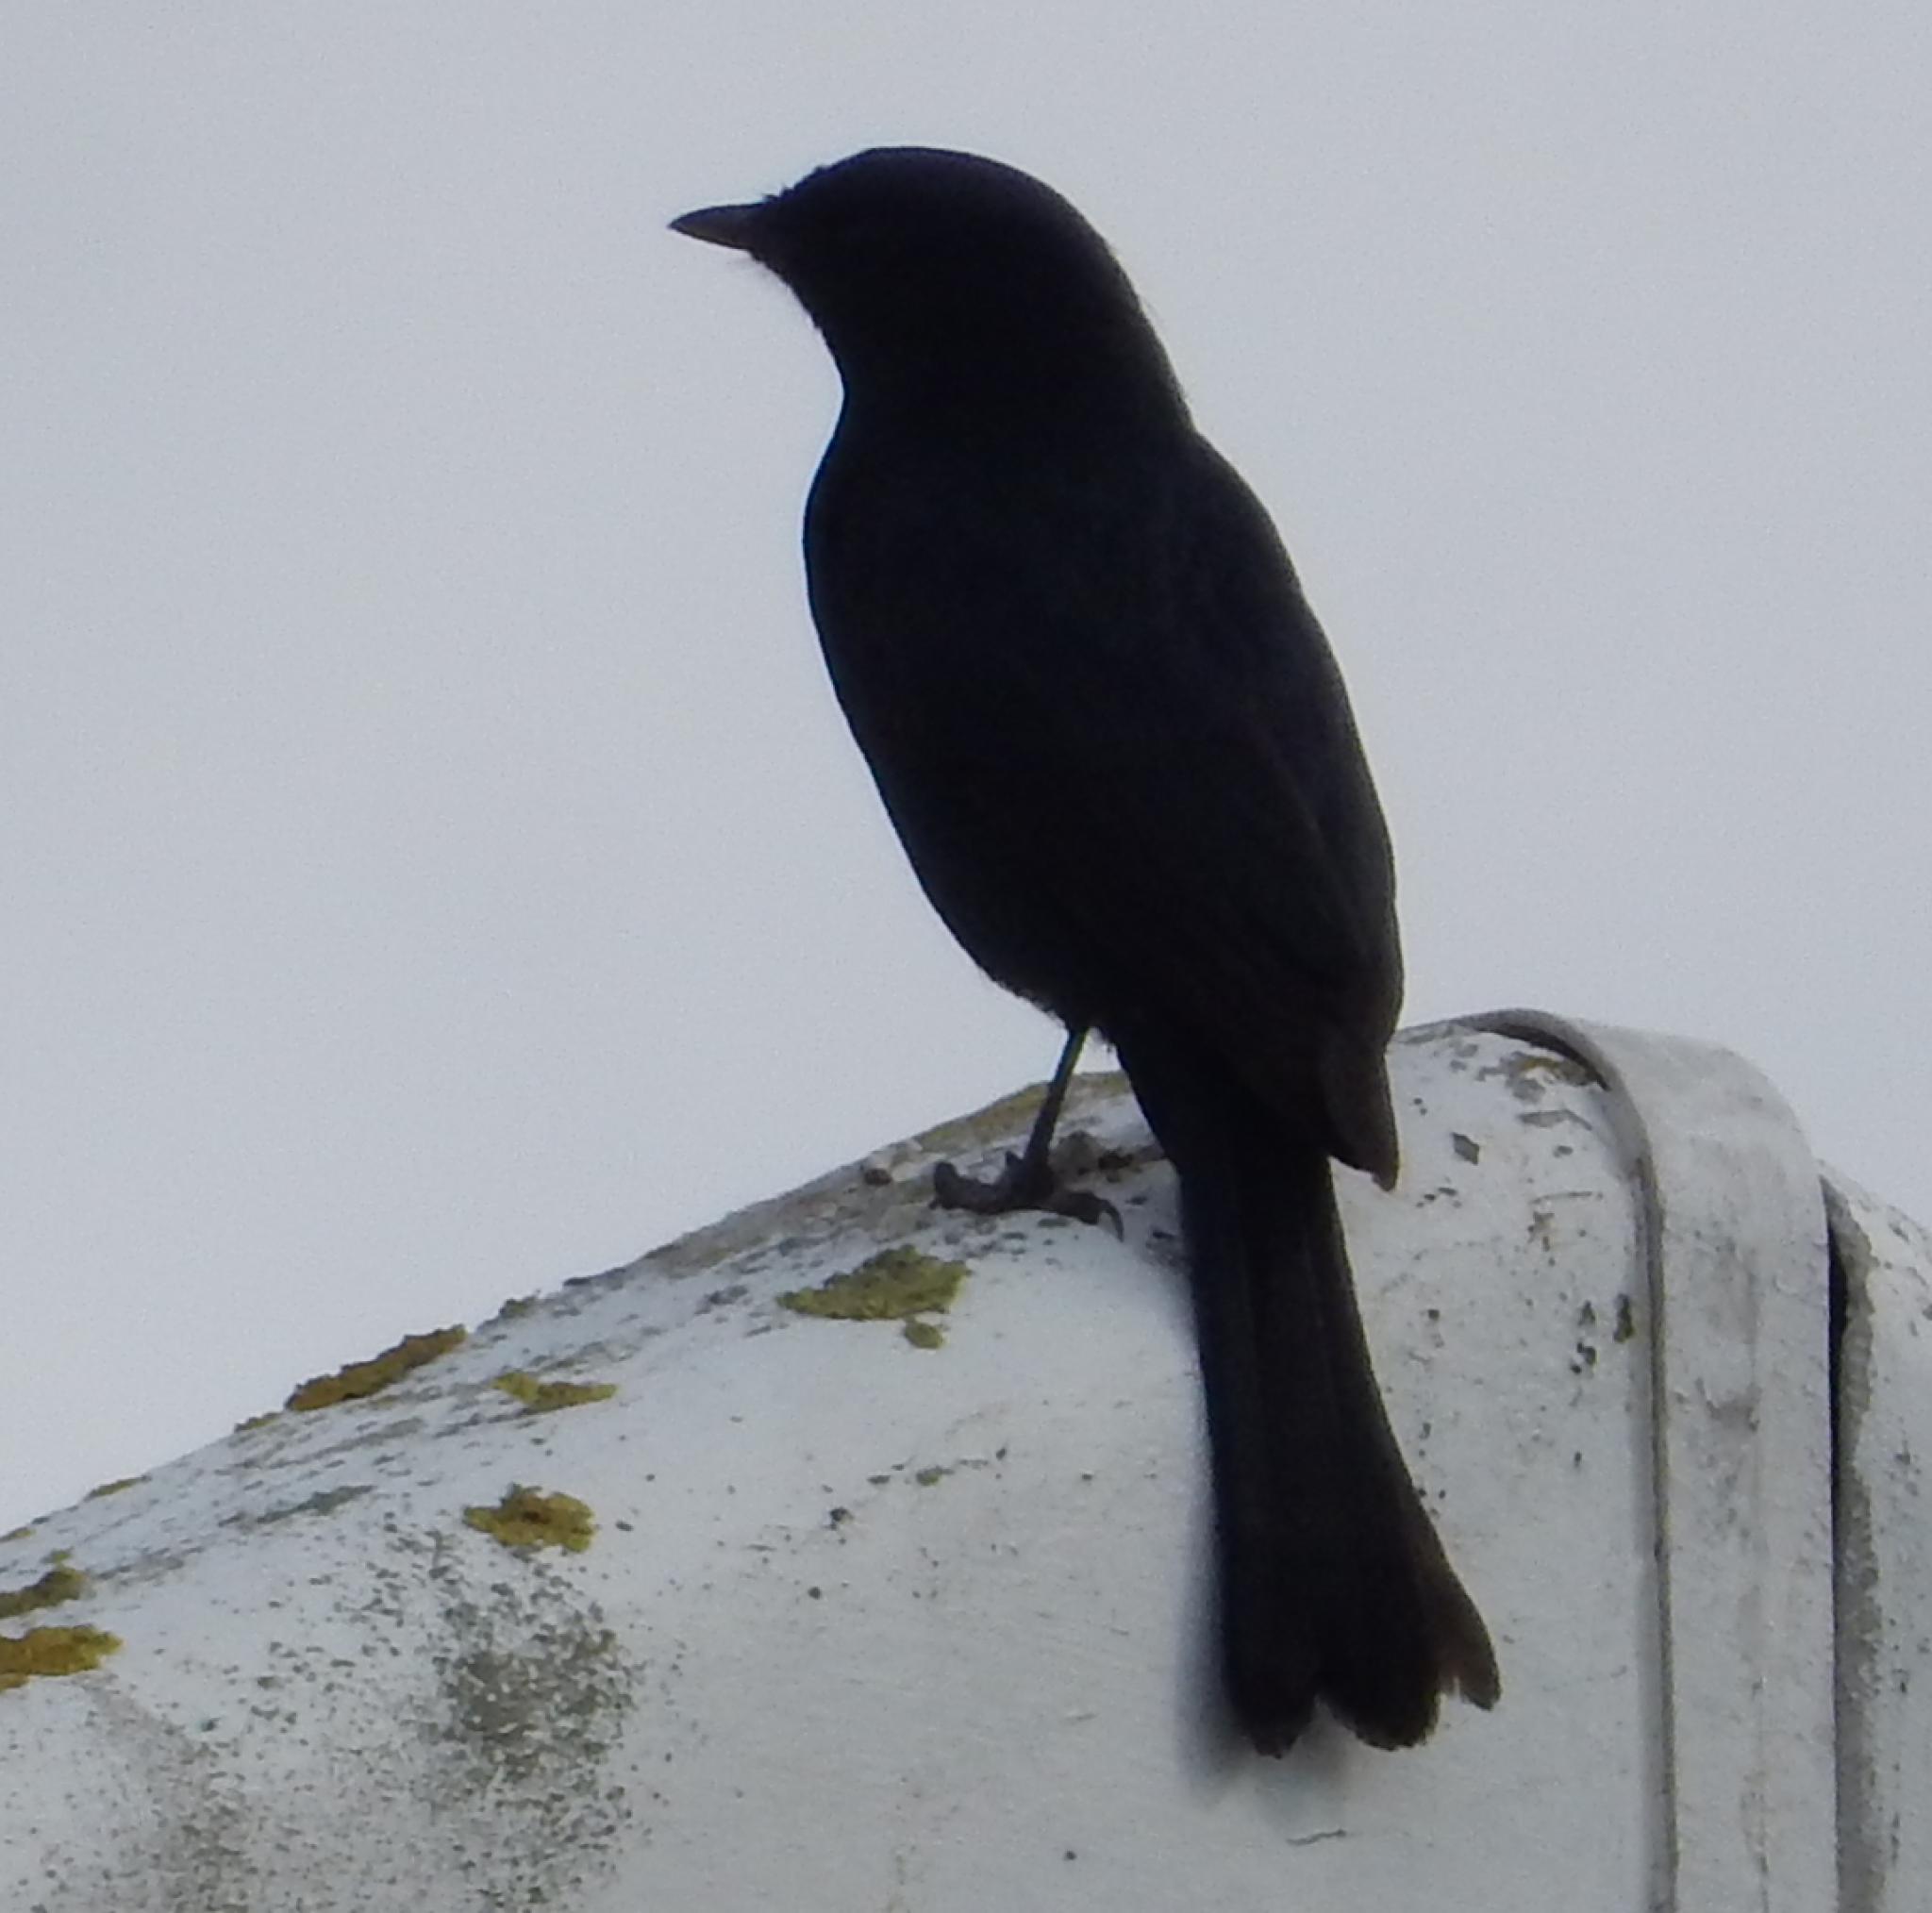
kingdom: Animalia
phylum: Chordata
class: Aves
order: Passeriformes
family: Muscicapidae
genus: Melaenornis
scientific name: Melaenornis pammelaina
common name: Southern black flycatcher
